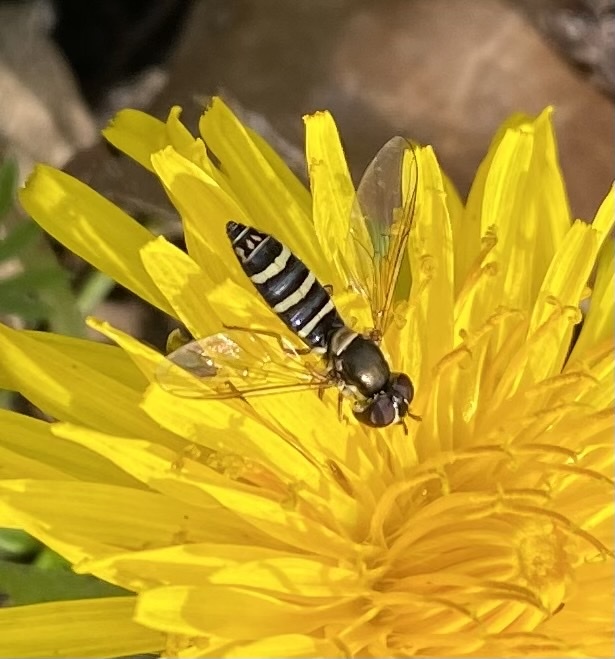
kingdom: Animalia
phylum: Arthropoda
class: Insecta
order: Diptera
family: Syrphidae
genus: Fazia
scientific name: Fazia micrura
